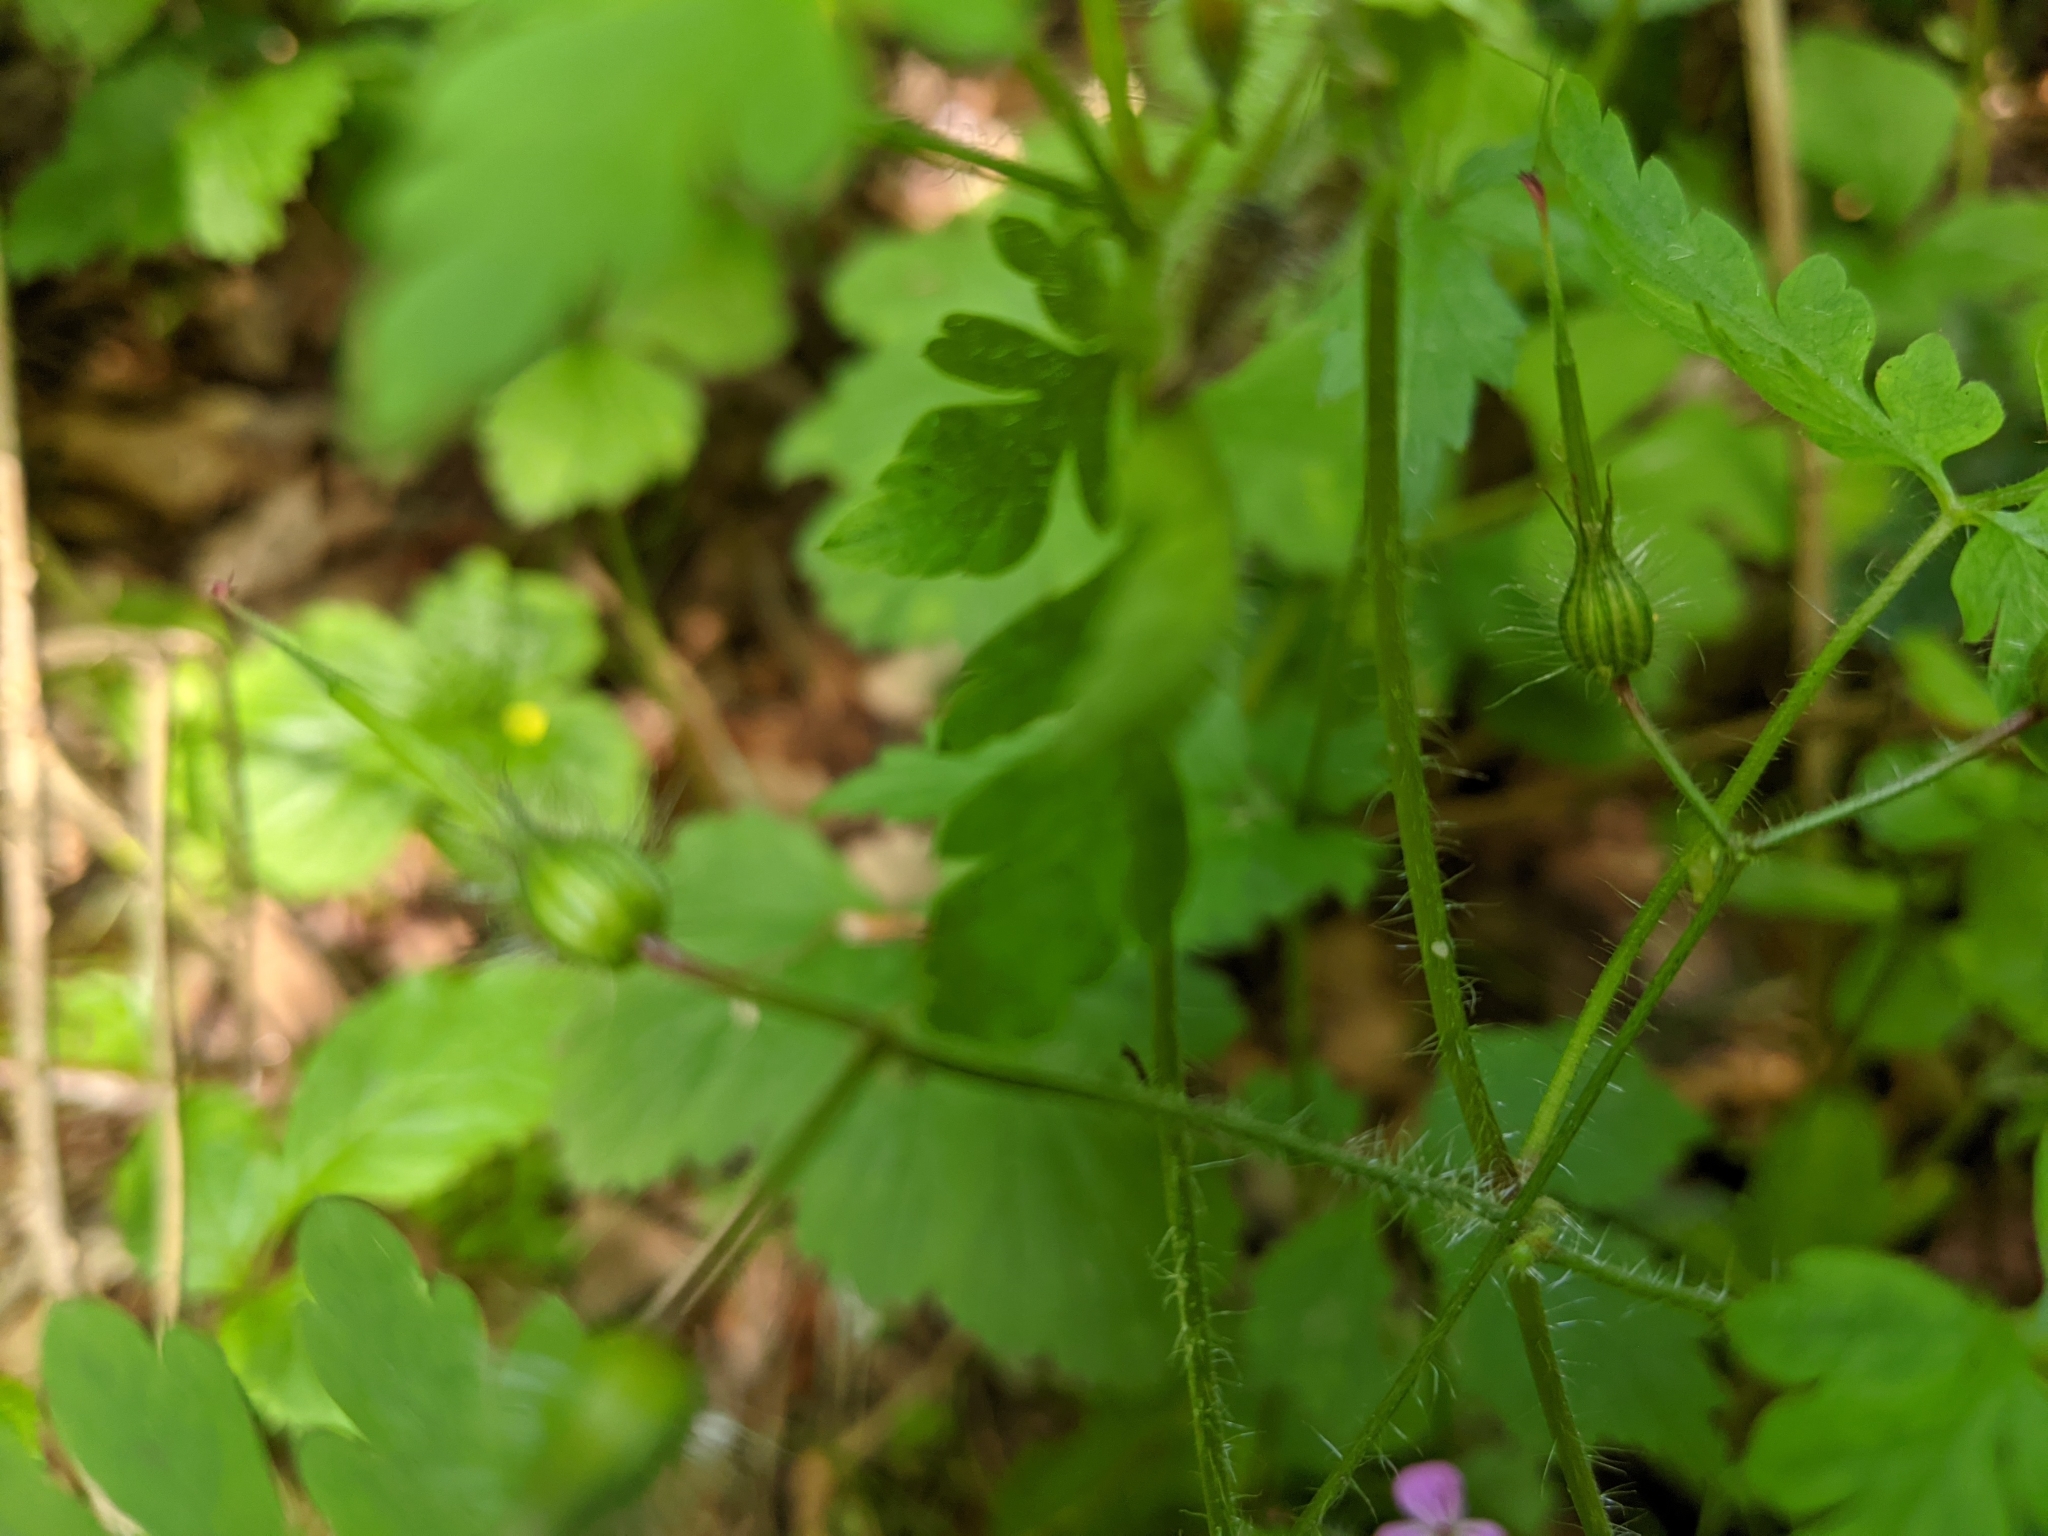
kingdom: Plantae
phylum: Tracheophyta
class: Magnoliopsida
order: Geraniales
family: Geraniaceae
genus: Geranium
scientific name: Geranium robertianum
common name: Herb-robert
